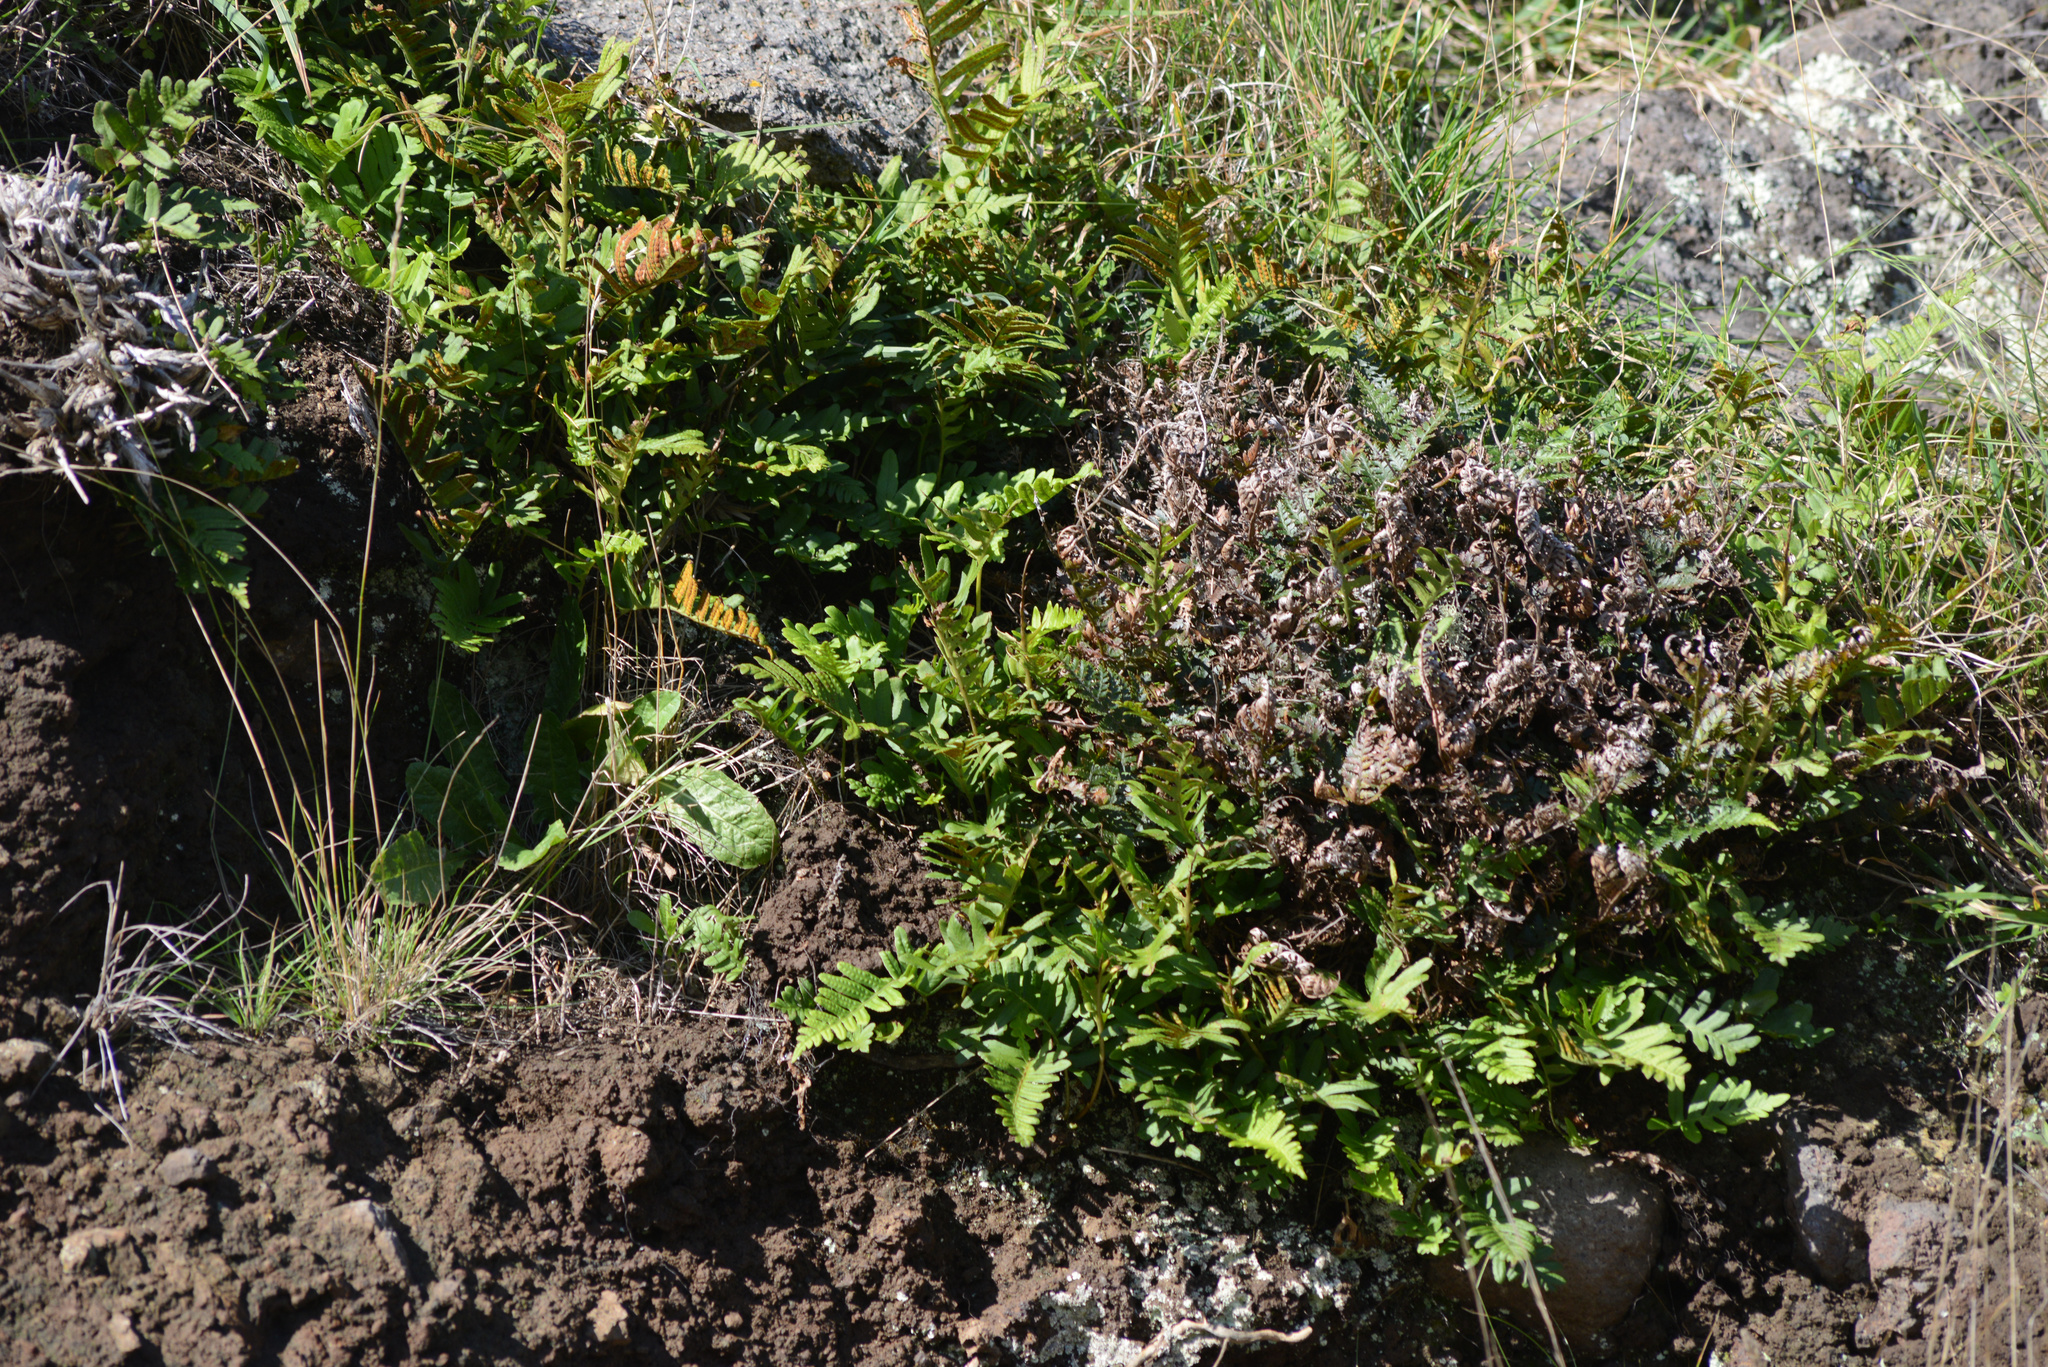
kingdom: Plantae
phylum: Tracheophyta
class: Polypodiopsida
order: Polypodiales
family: Polypodiaceae
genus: Polypodium
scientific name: Polypodium vulgare
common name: Common polypody
